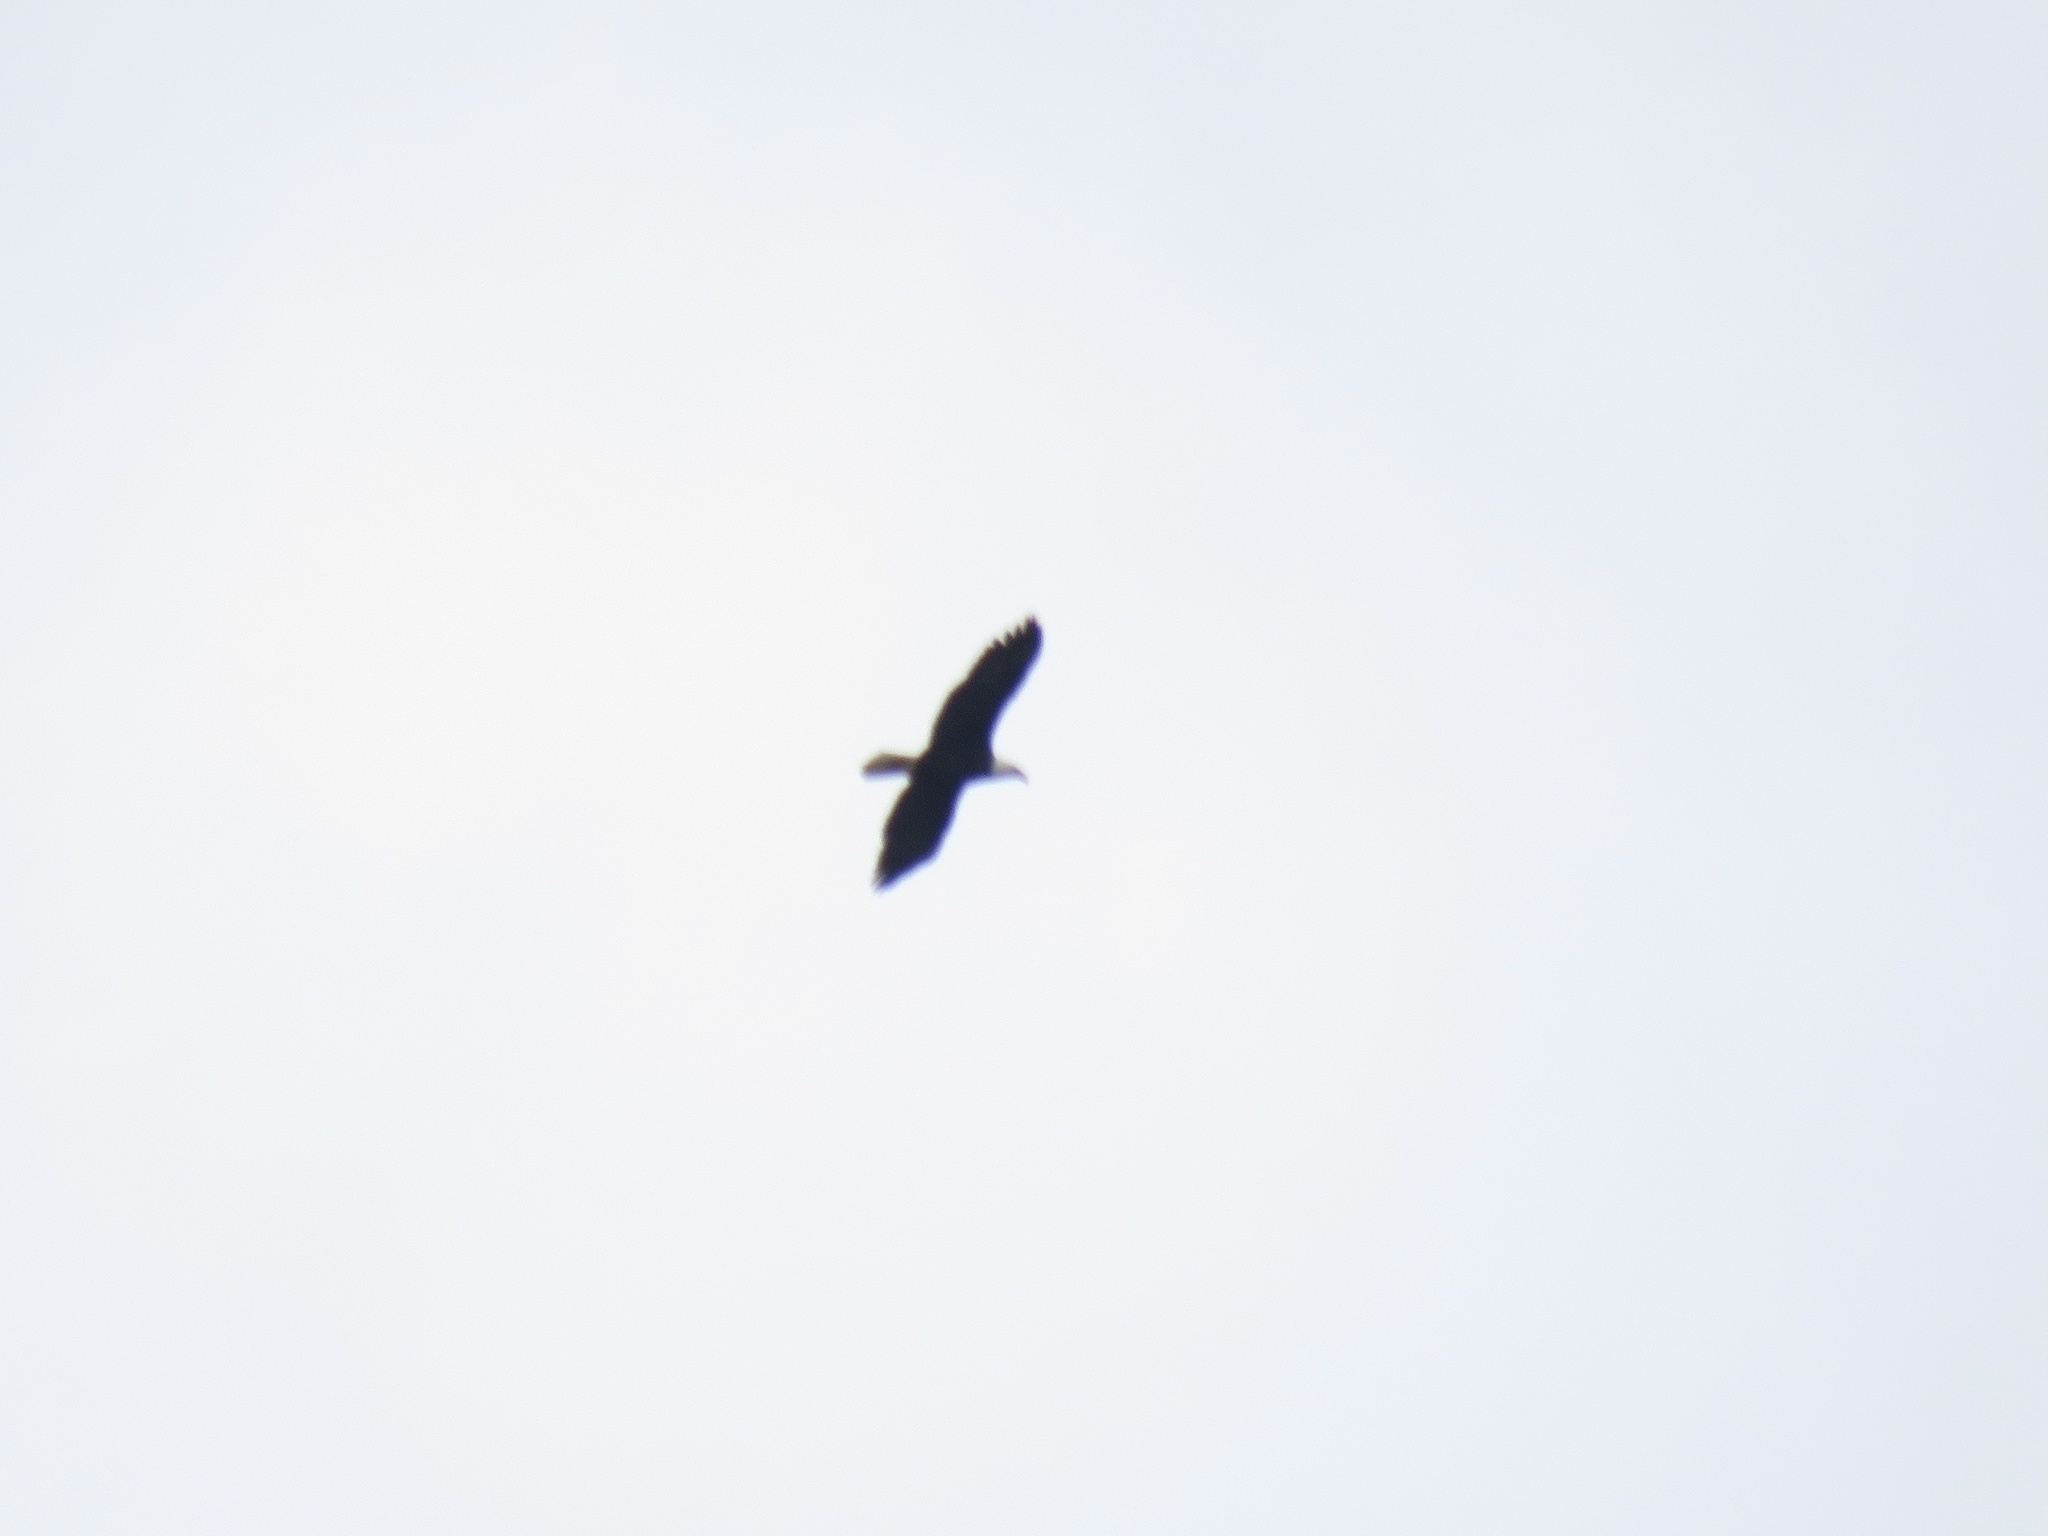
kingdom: Animalia
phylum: Chordata
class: Aves
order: Accipitriformes
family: Accipitridae
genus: Haliaeetus
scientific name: Haliaeetus leucocephalus
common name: Bald eagle
